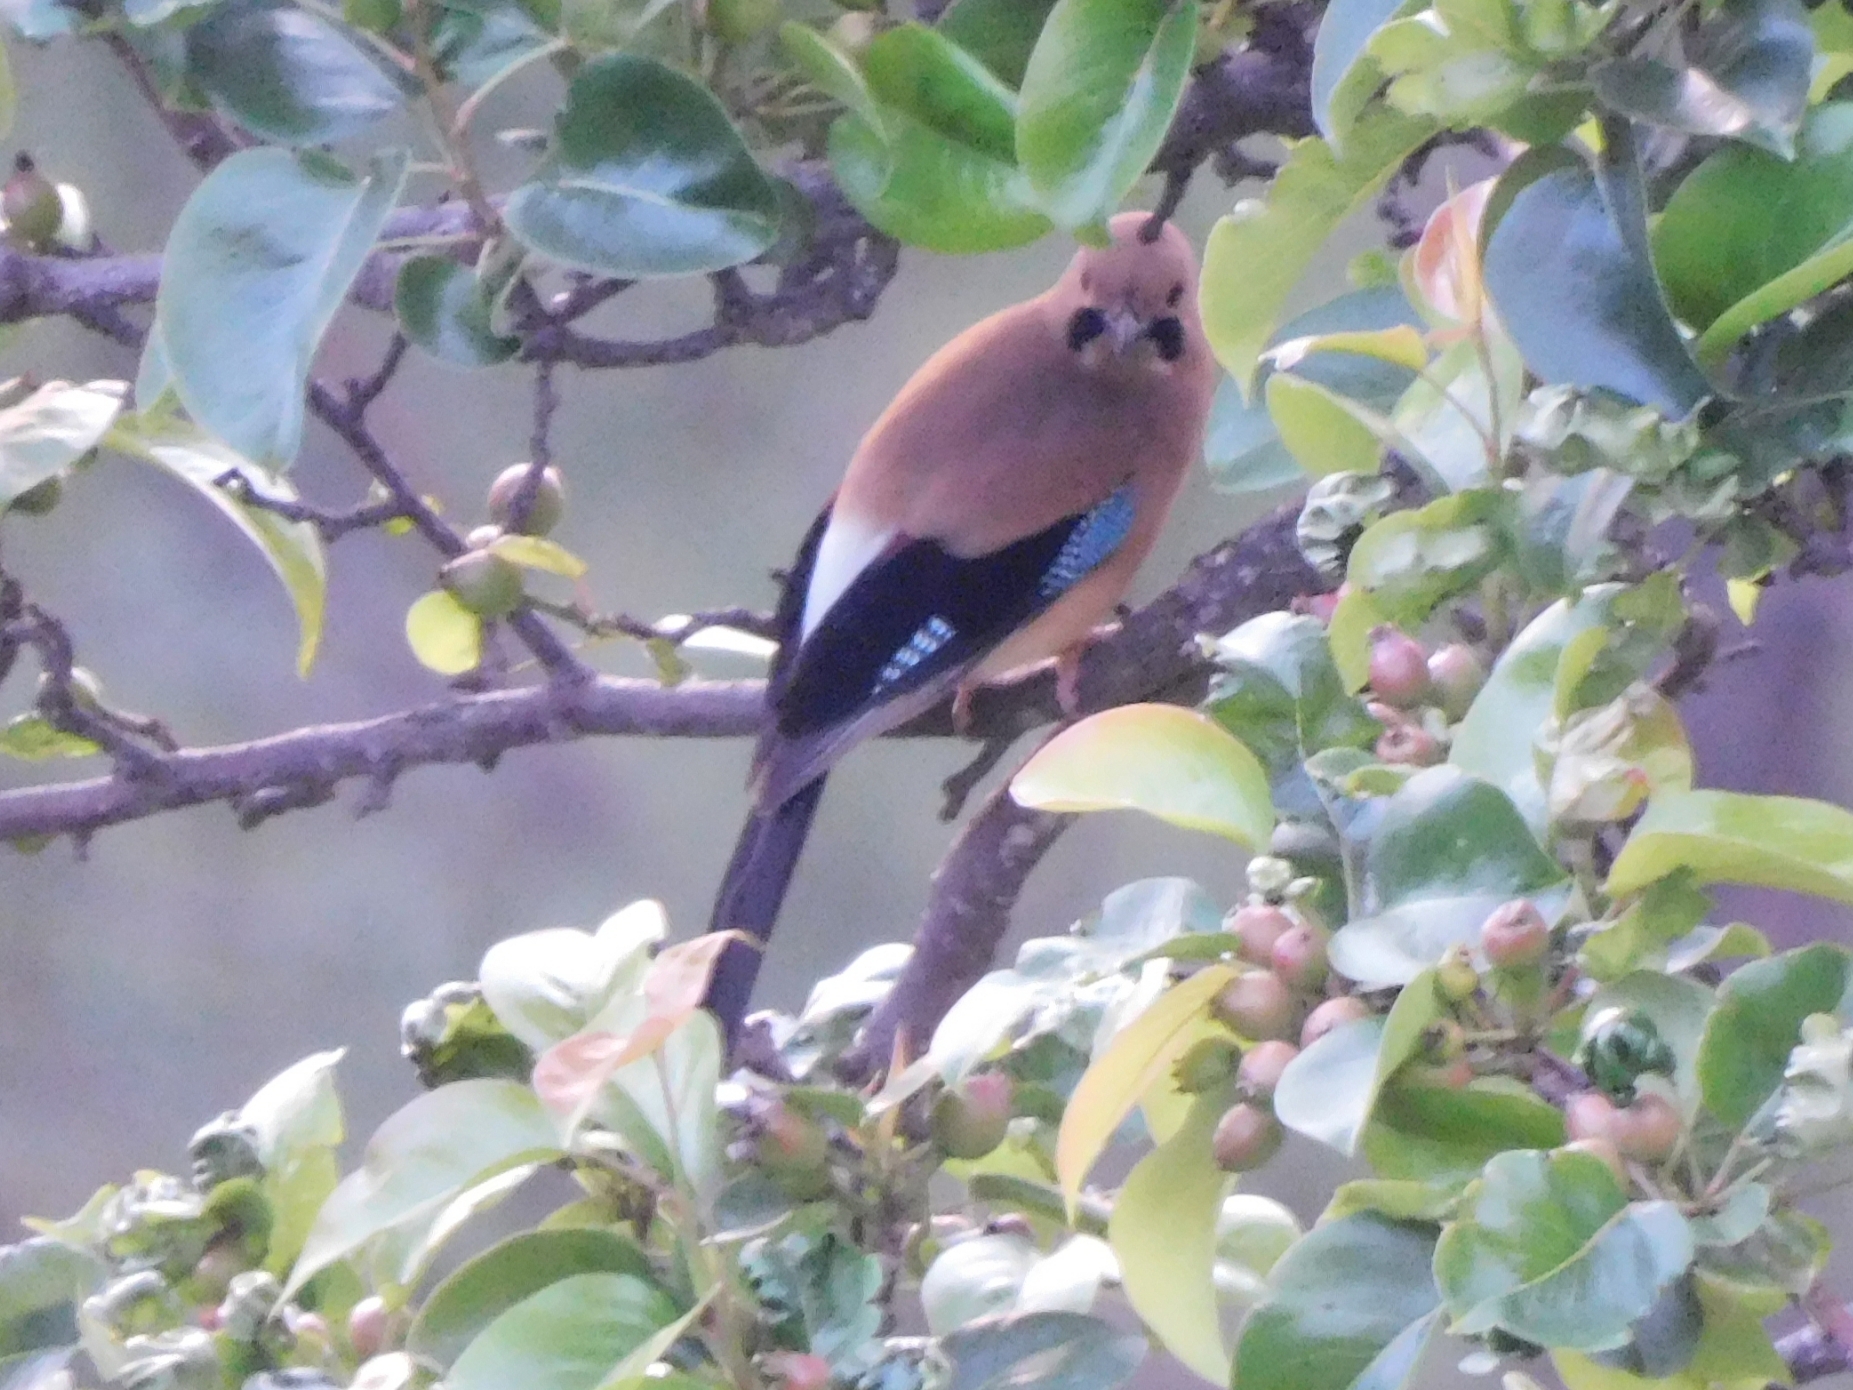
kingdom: Animalia
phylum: Chordata
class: Aves
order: Passeriformes
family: Corvidae
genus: Garrulus
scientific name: Garrulus glandarius
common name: Eurasian jay
